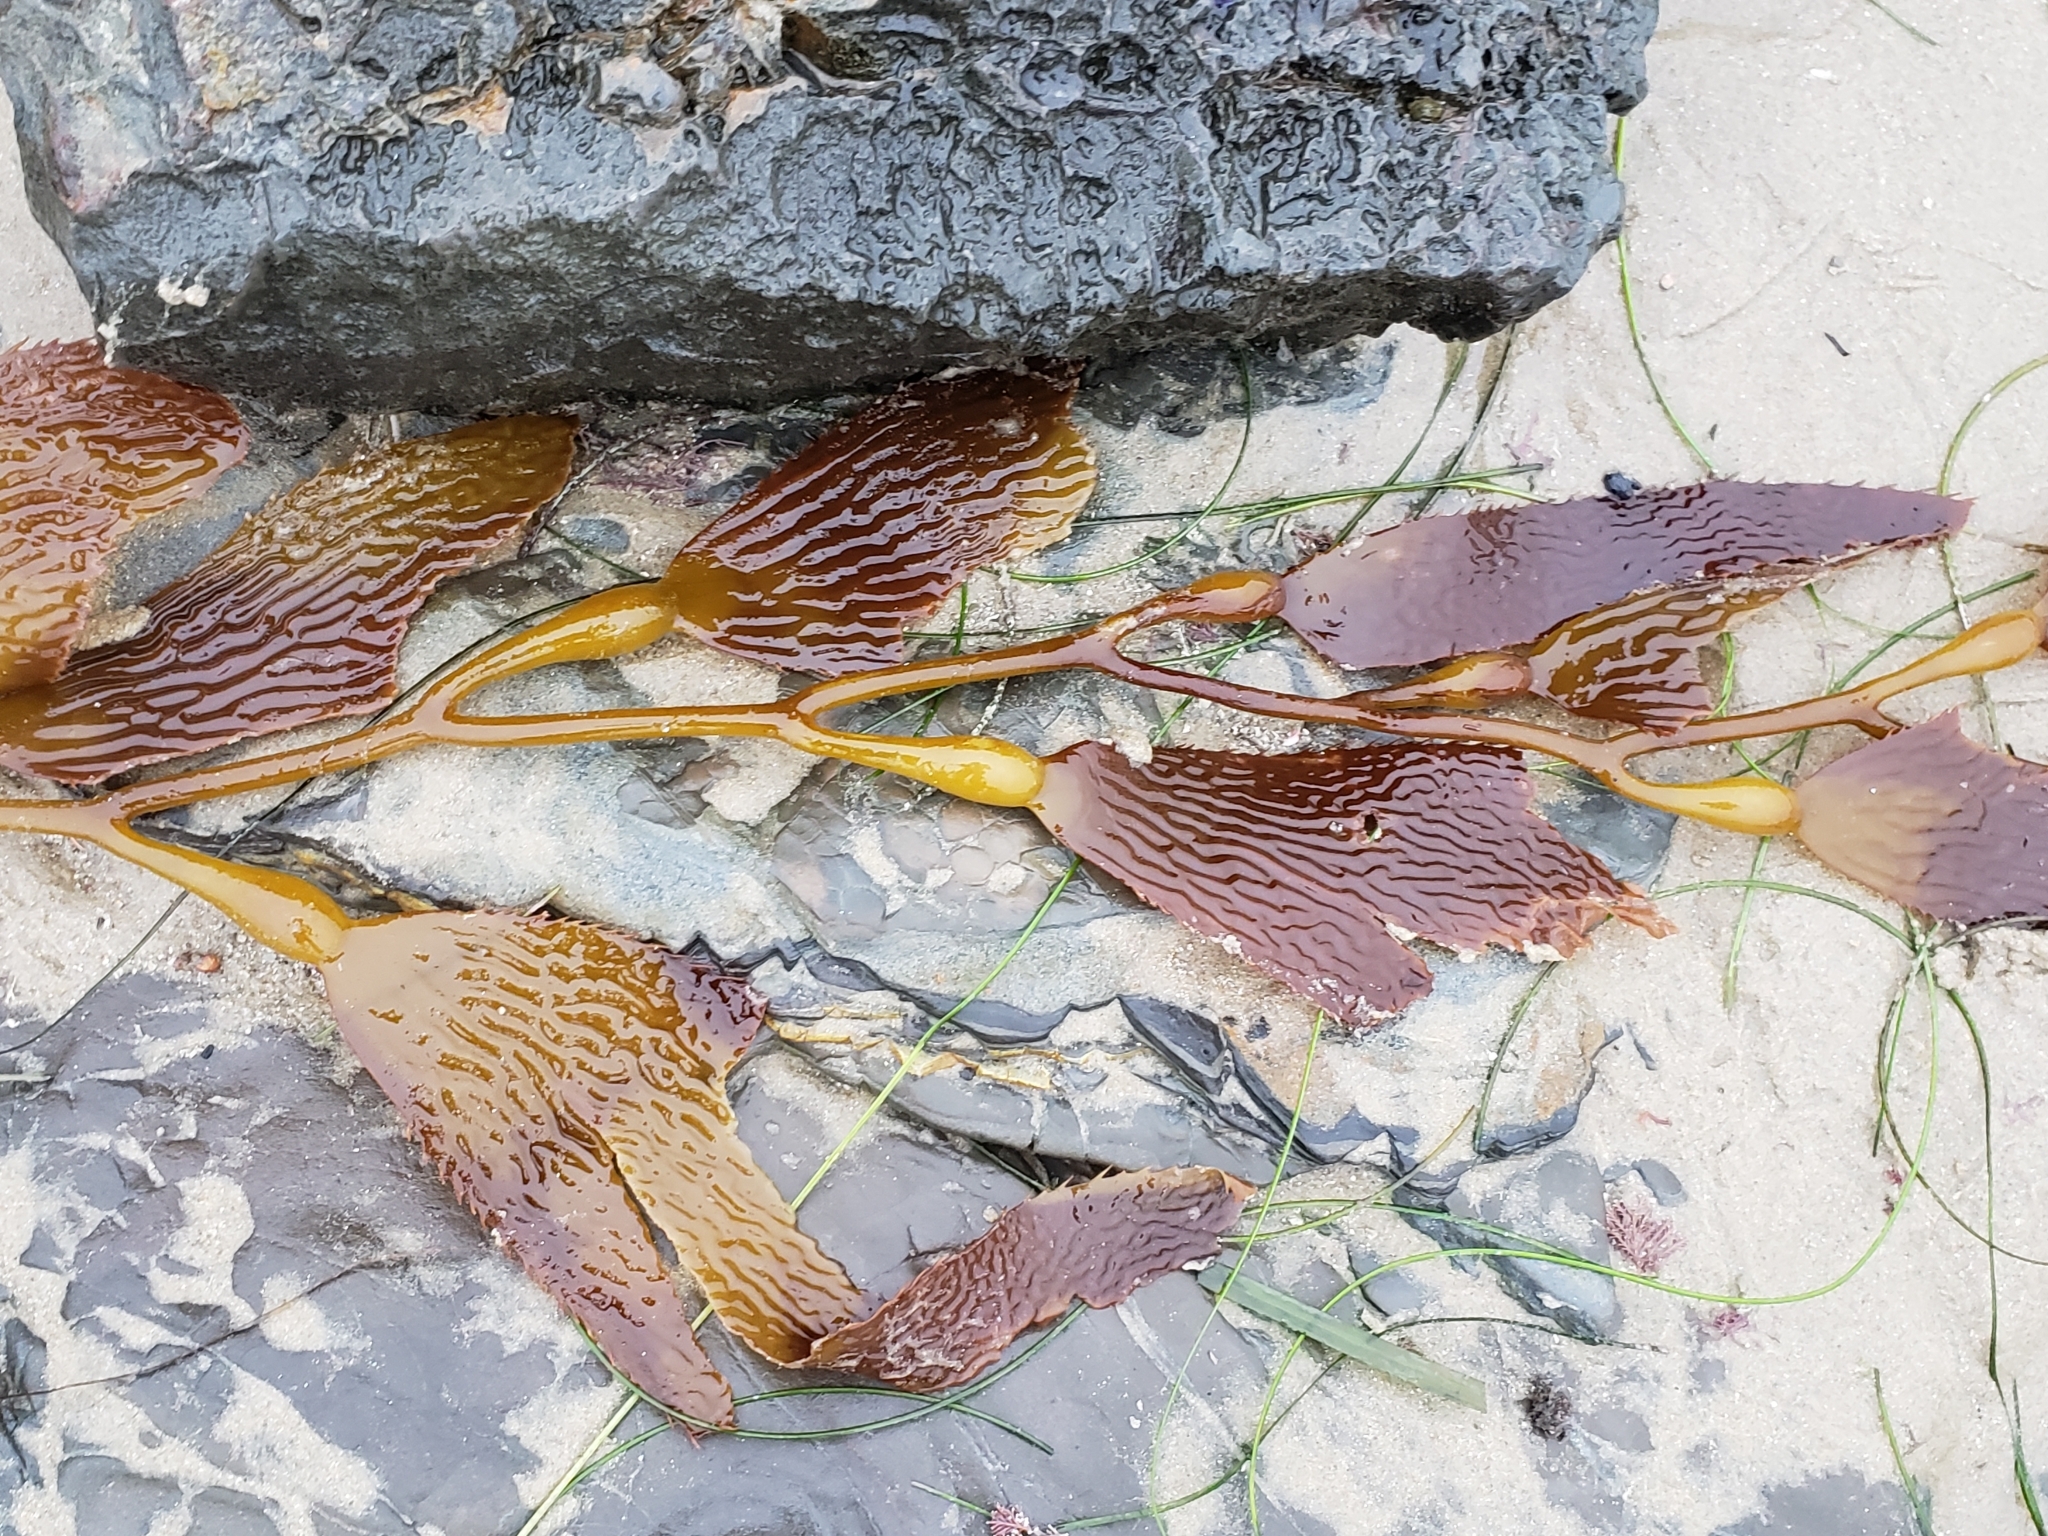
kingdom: Chromista
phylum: Ochrophyta
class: Phaeophyceae
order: Laminariales
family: Laminariaceae
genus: Macrocystis
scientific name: Macrocystis pyrifera
